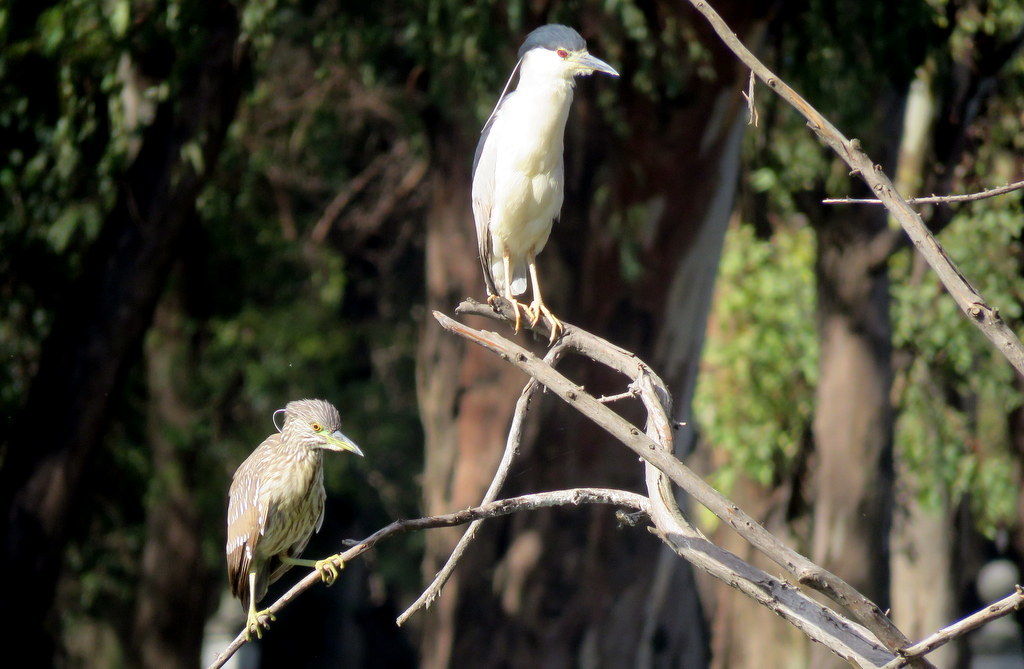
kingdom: Animalia
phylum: Chordata
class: Aves
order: Pelecaniformes
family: Ardeidae
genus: Nycticorax
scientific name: Nycticorax nycticorax
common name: Black-crowned night heron
